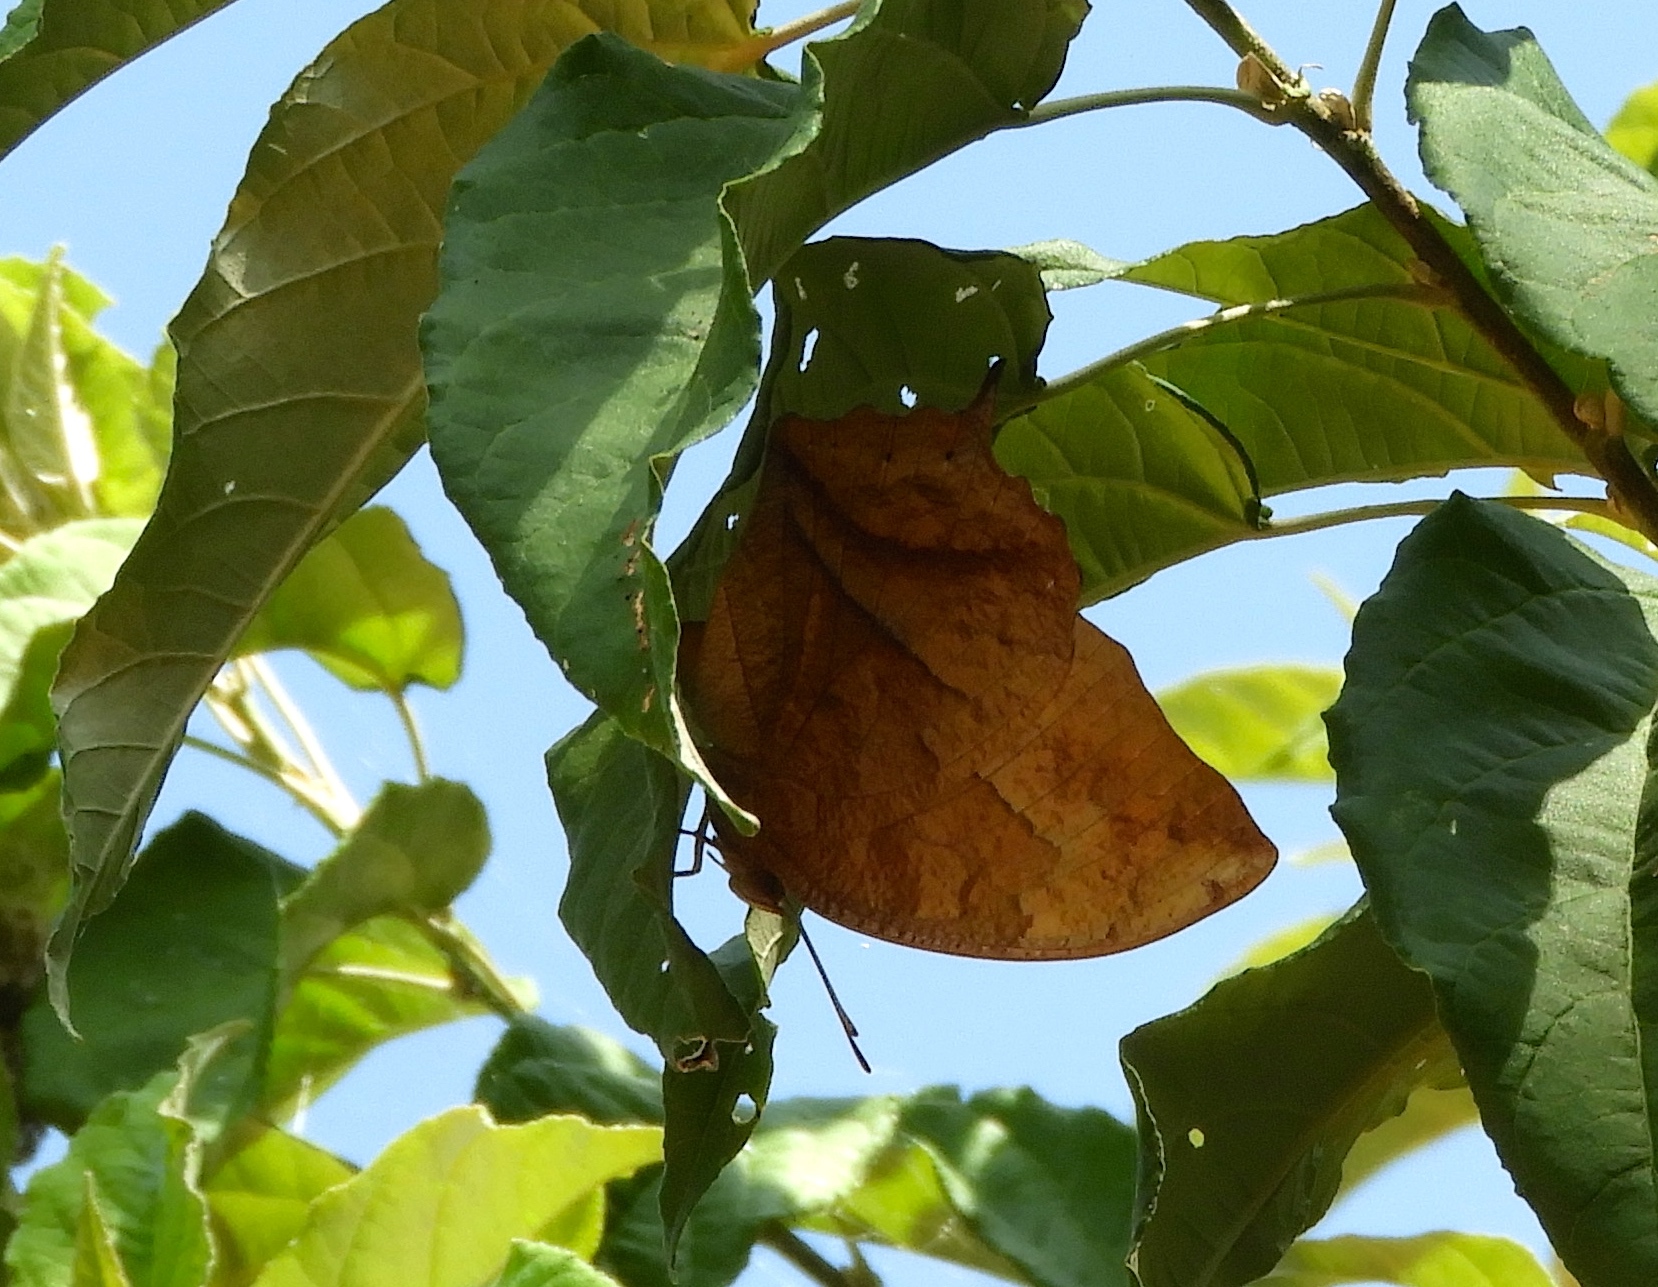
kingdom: Animalia
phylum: Arthropoda
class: Insecta
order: Lepidoptera
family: Nymphalidae
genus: Fountainea
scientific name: Fountainea
